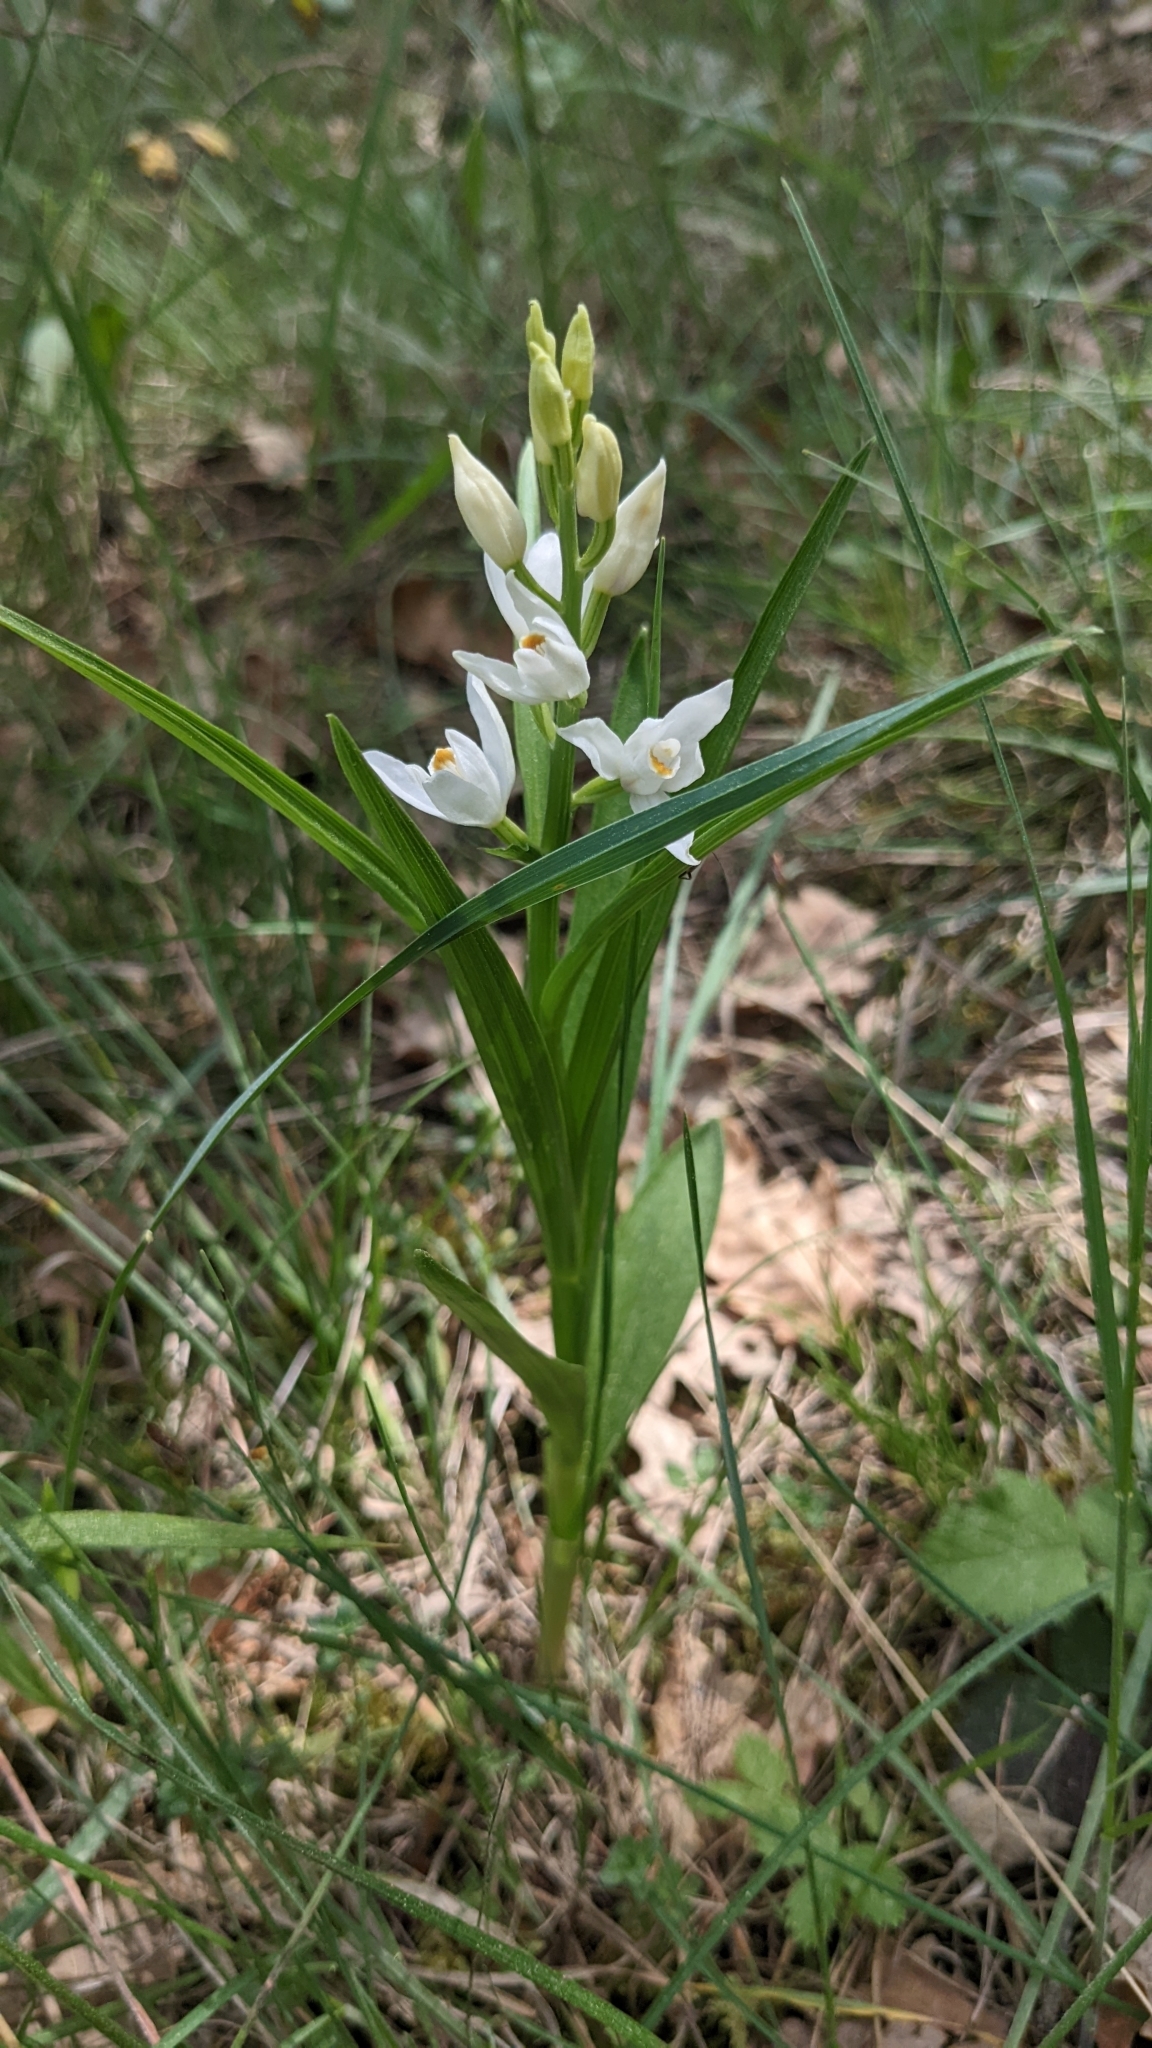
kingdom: Plantae
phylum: Tracheophyta
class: Liliopsida
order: Asparagales
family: Orchidaceae
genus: Cephalanthera
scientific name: Cephalanthera longifolia
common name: Narrow-leaved helleborine
